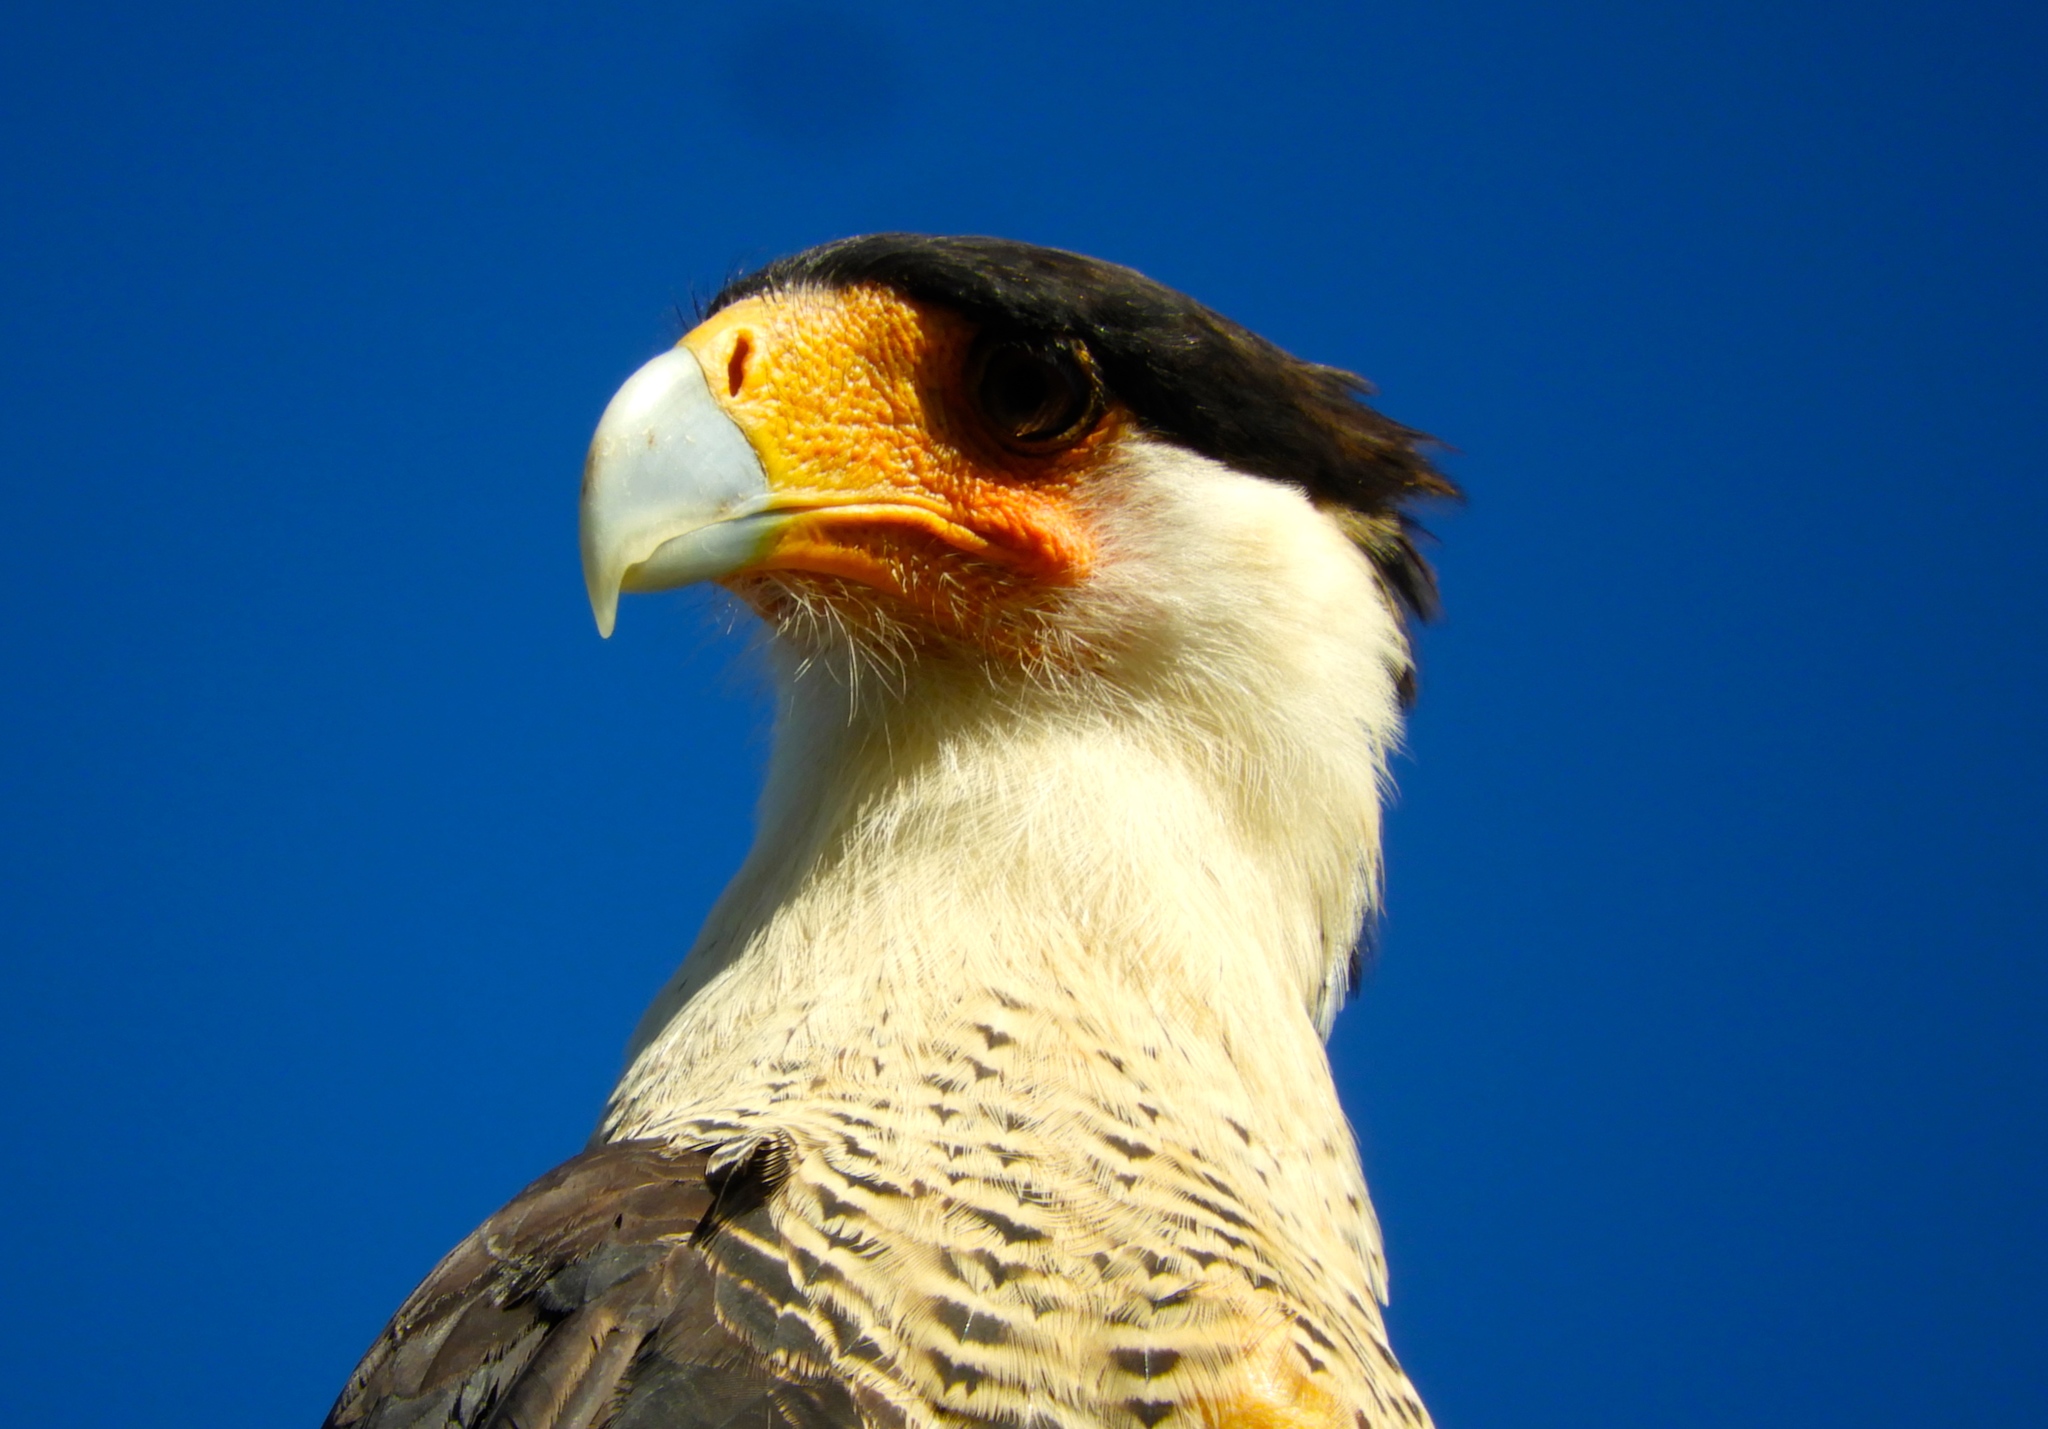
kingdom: Animalia
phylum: Chordata
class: Aves
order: Falconiformes
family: Falconidae
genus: Caracara
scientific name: Caracara plancus
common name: Southern caracara
